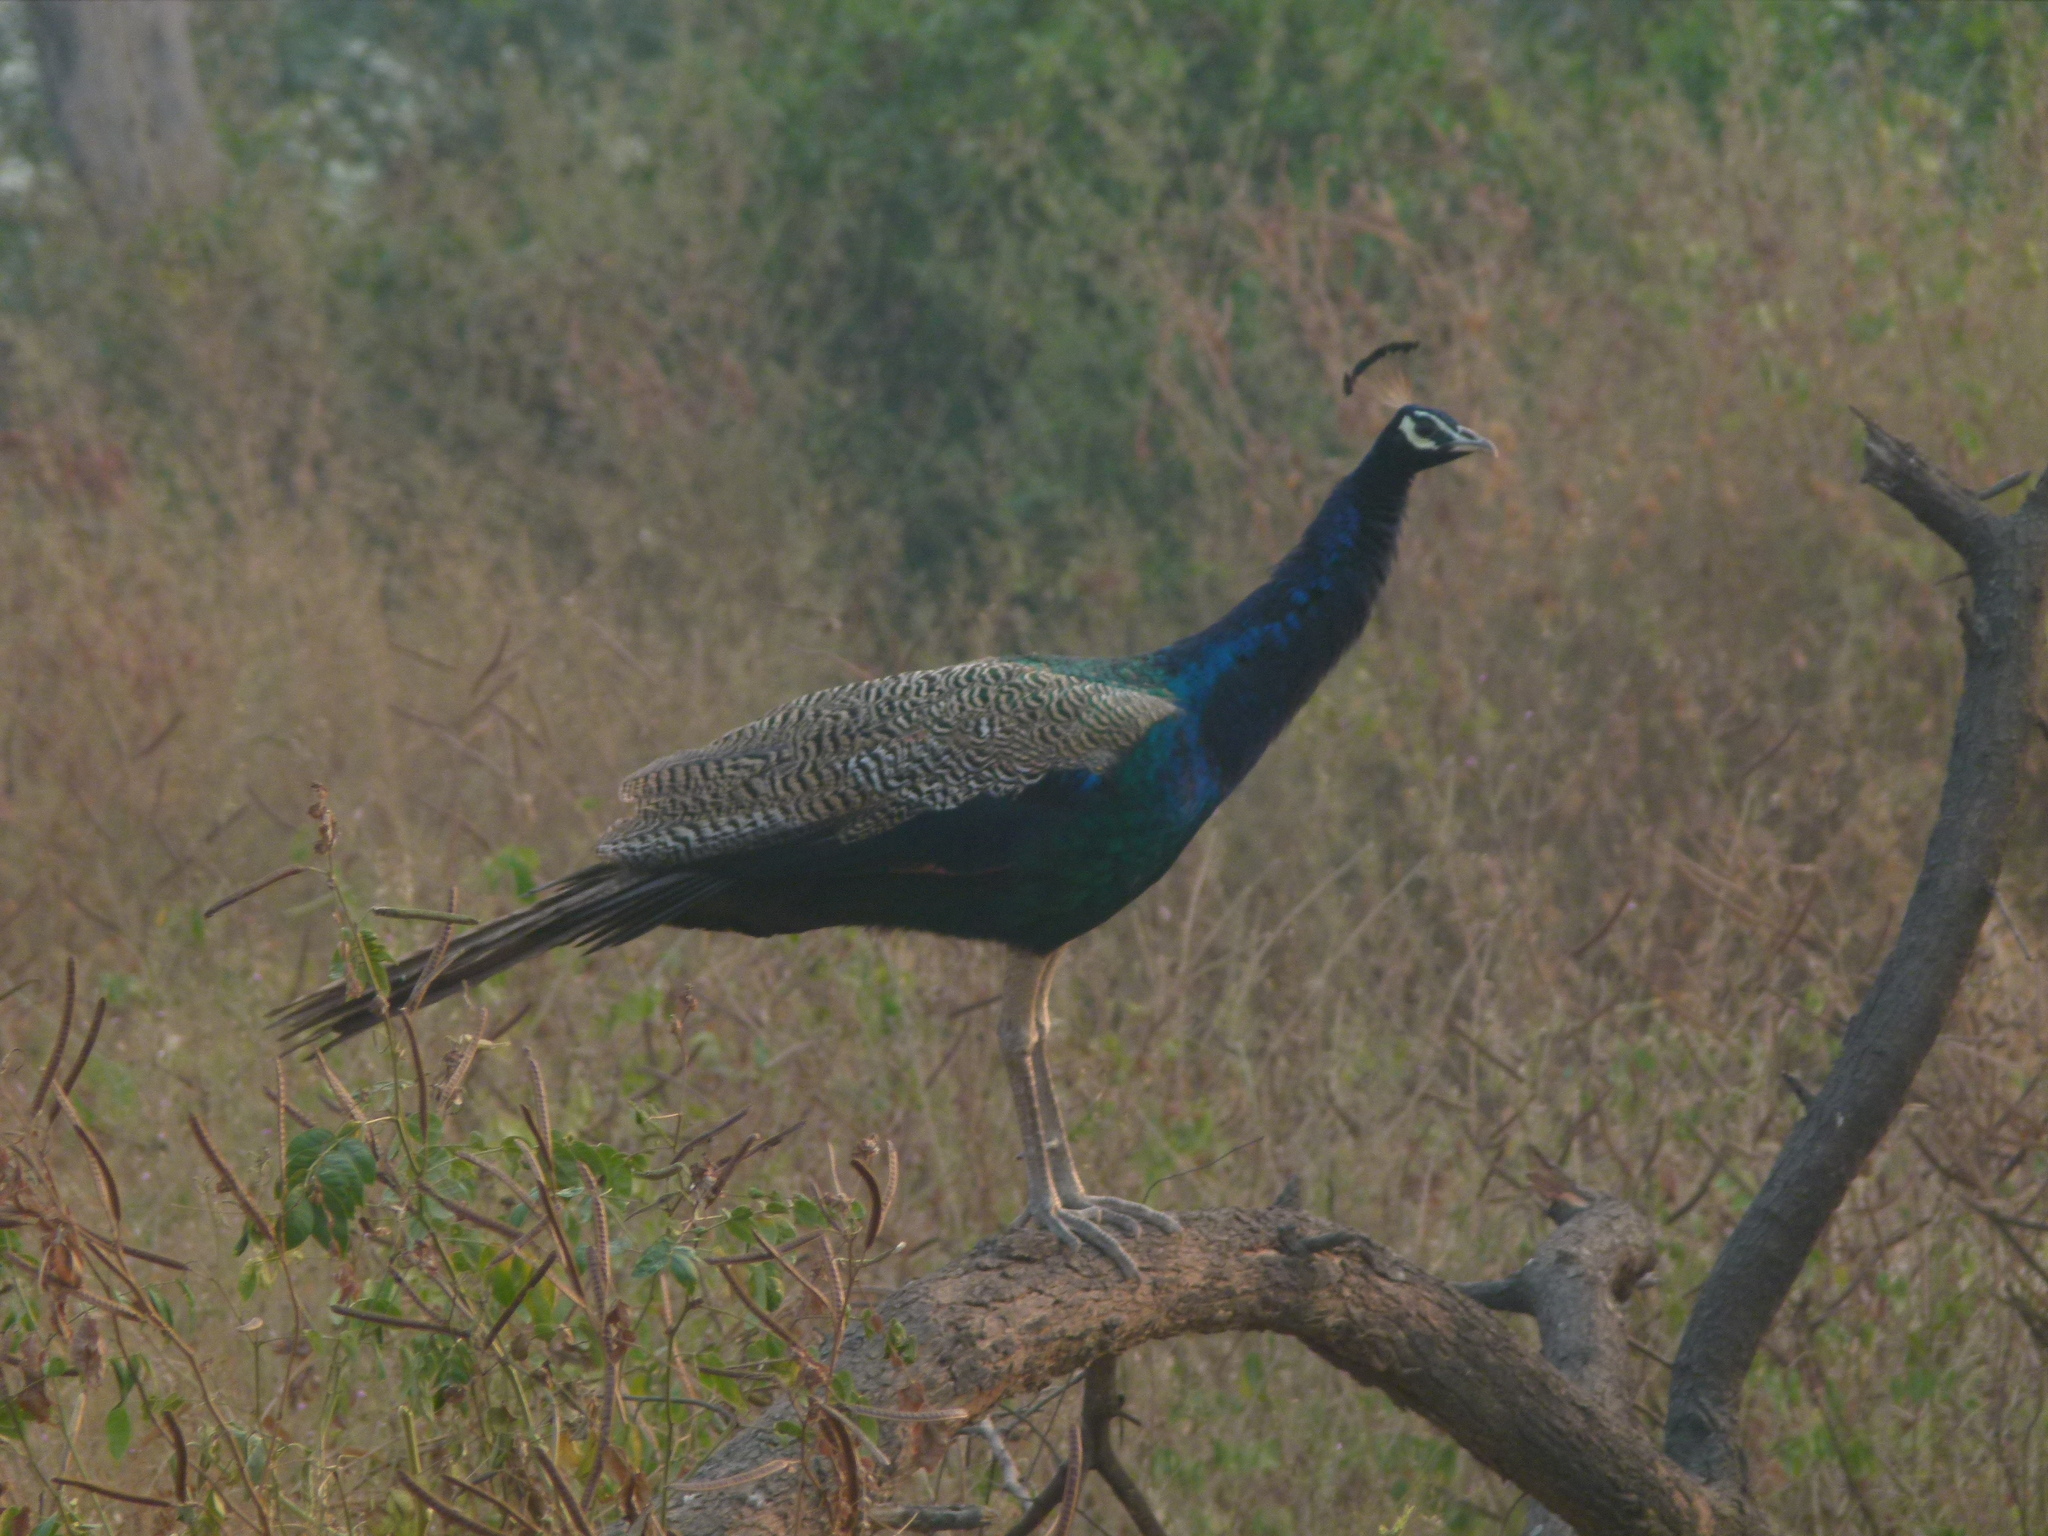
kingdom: Animalia
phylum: Chordata
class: Aves
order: Galliformes
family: Phasianidae
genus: Pavo
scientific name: Pavo cristatus
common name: Indian peafowl
